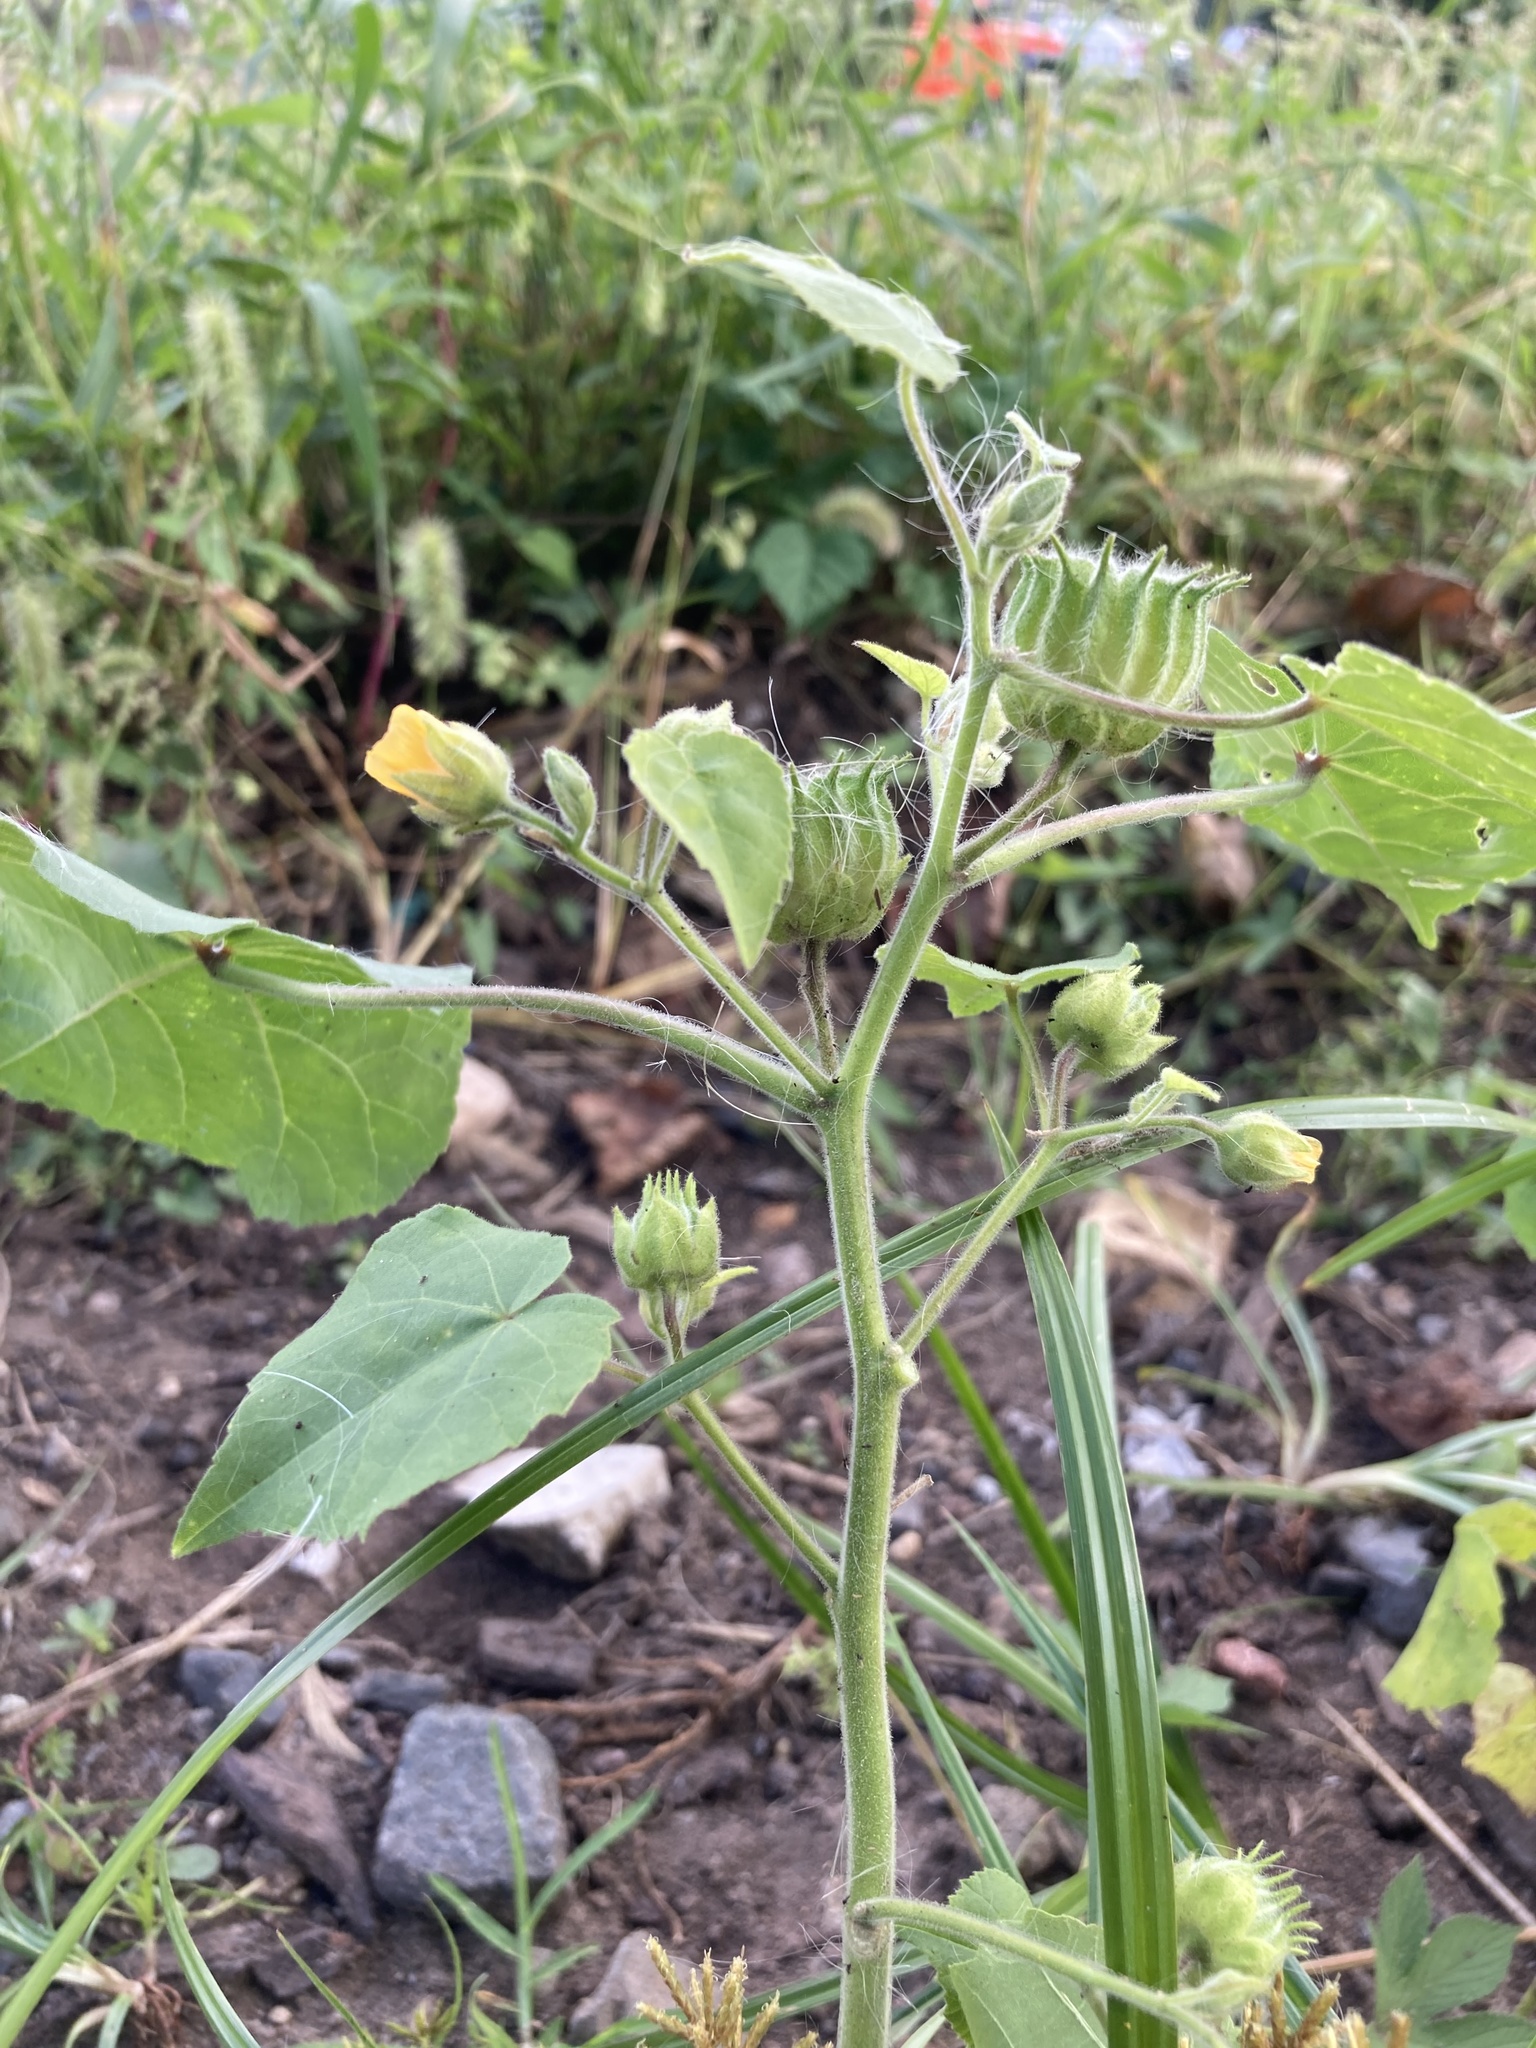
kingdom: Plantae
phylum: Tracheophyta
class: Magnoliopsida
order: Malvales
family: Malvaceae
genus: Abutilon
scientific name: Abutilon theophrasti
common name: Velvetleaf
